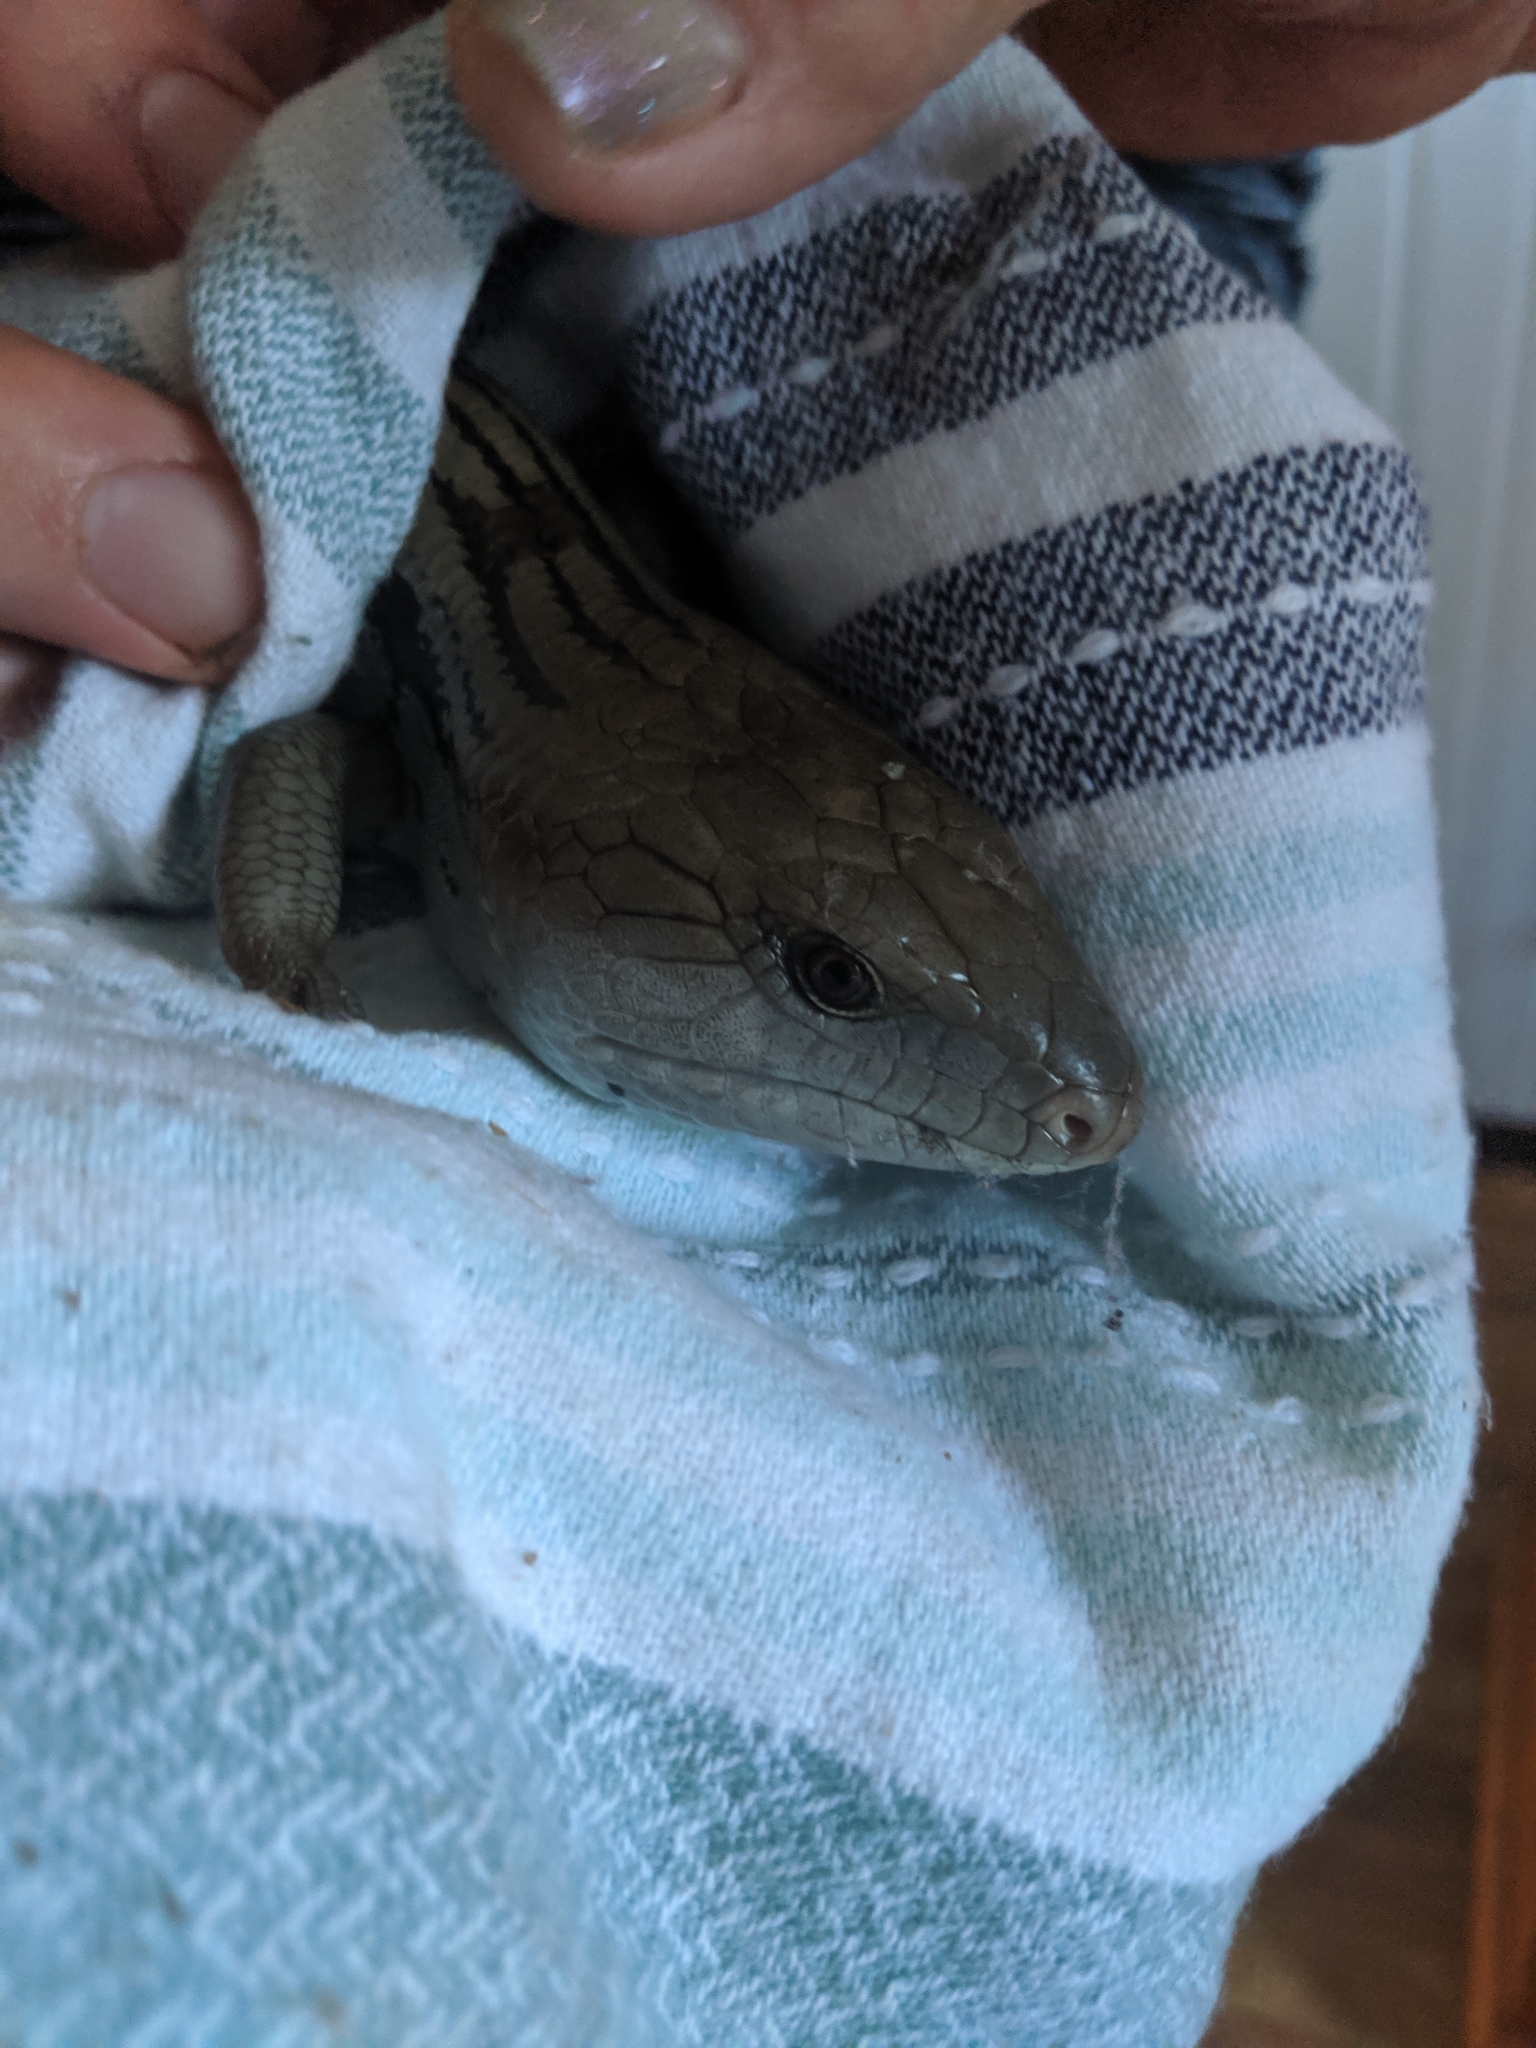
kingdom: Animalia
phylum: Chordata
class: Squamata
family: Scincidae
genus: Tiliqua
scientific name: Tiliqua scincoides
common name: Common bluetongue
